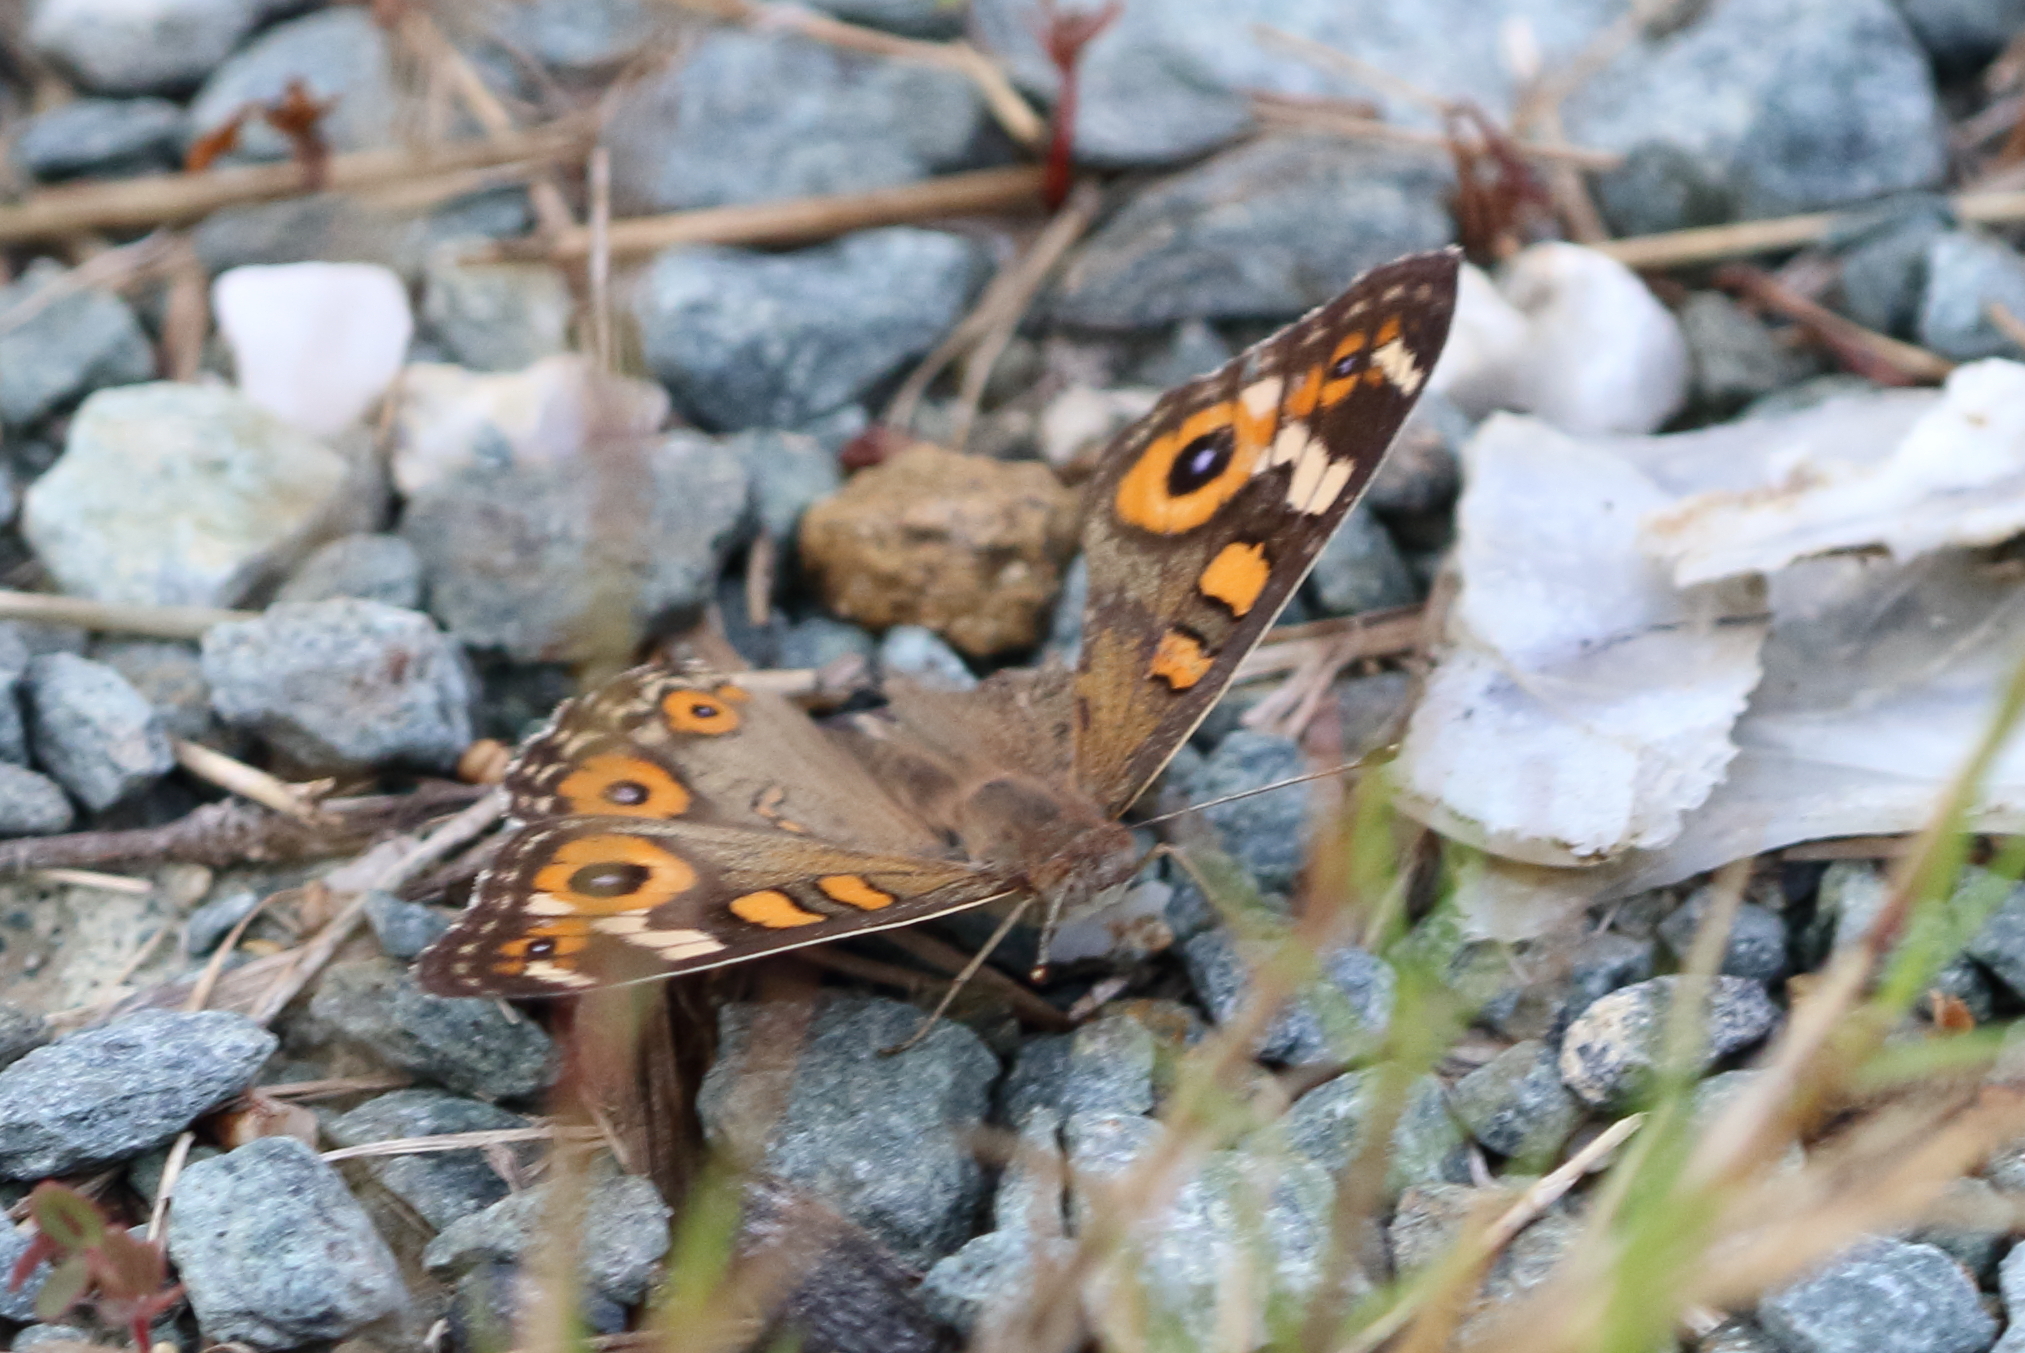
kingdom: Animalia
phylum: Arthropoda
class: Insecta
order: Lepidoptera
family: Nymphalidae
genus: Junonia
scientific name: Junonia villida
